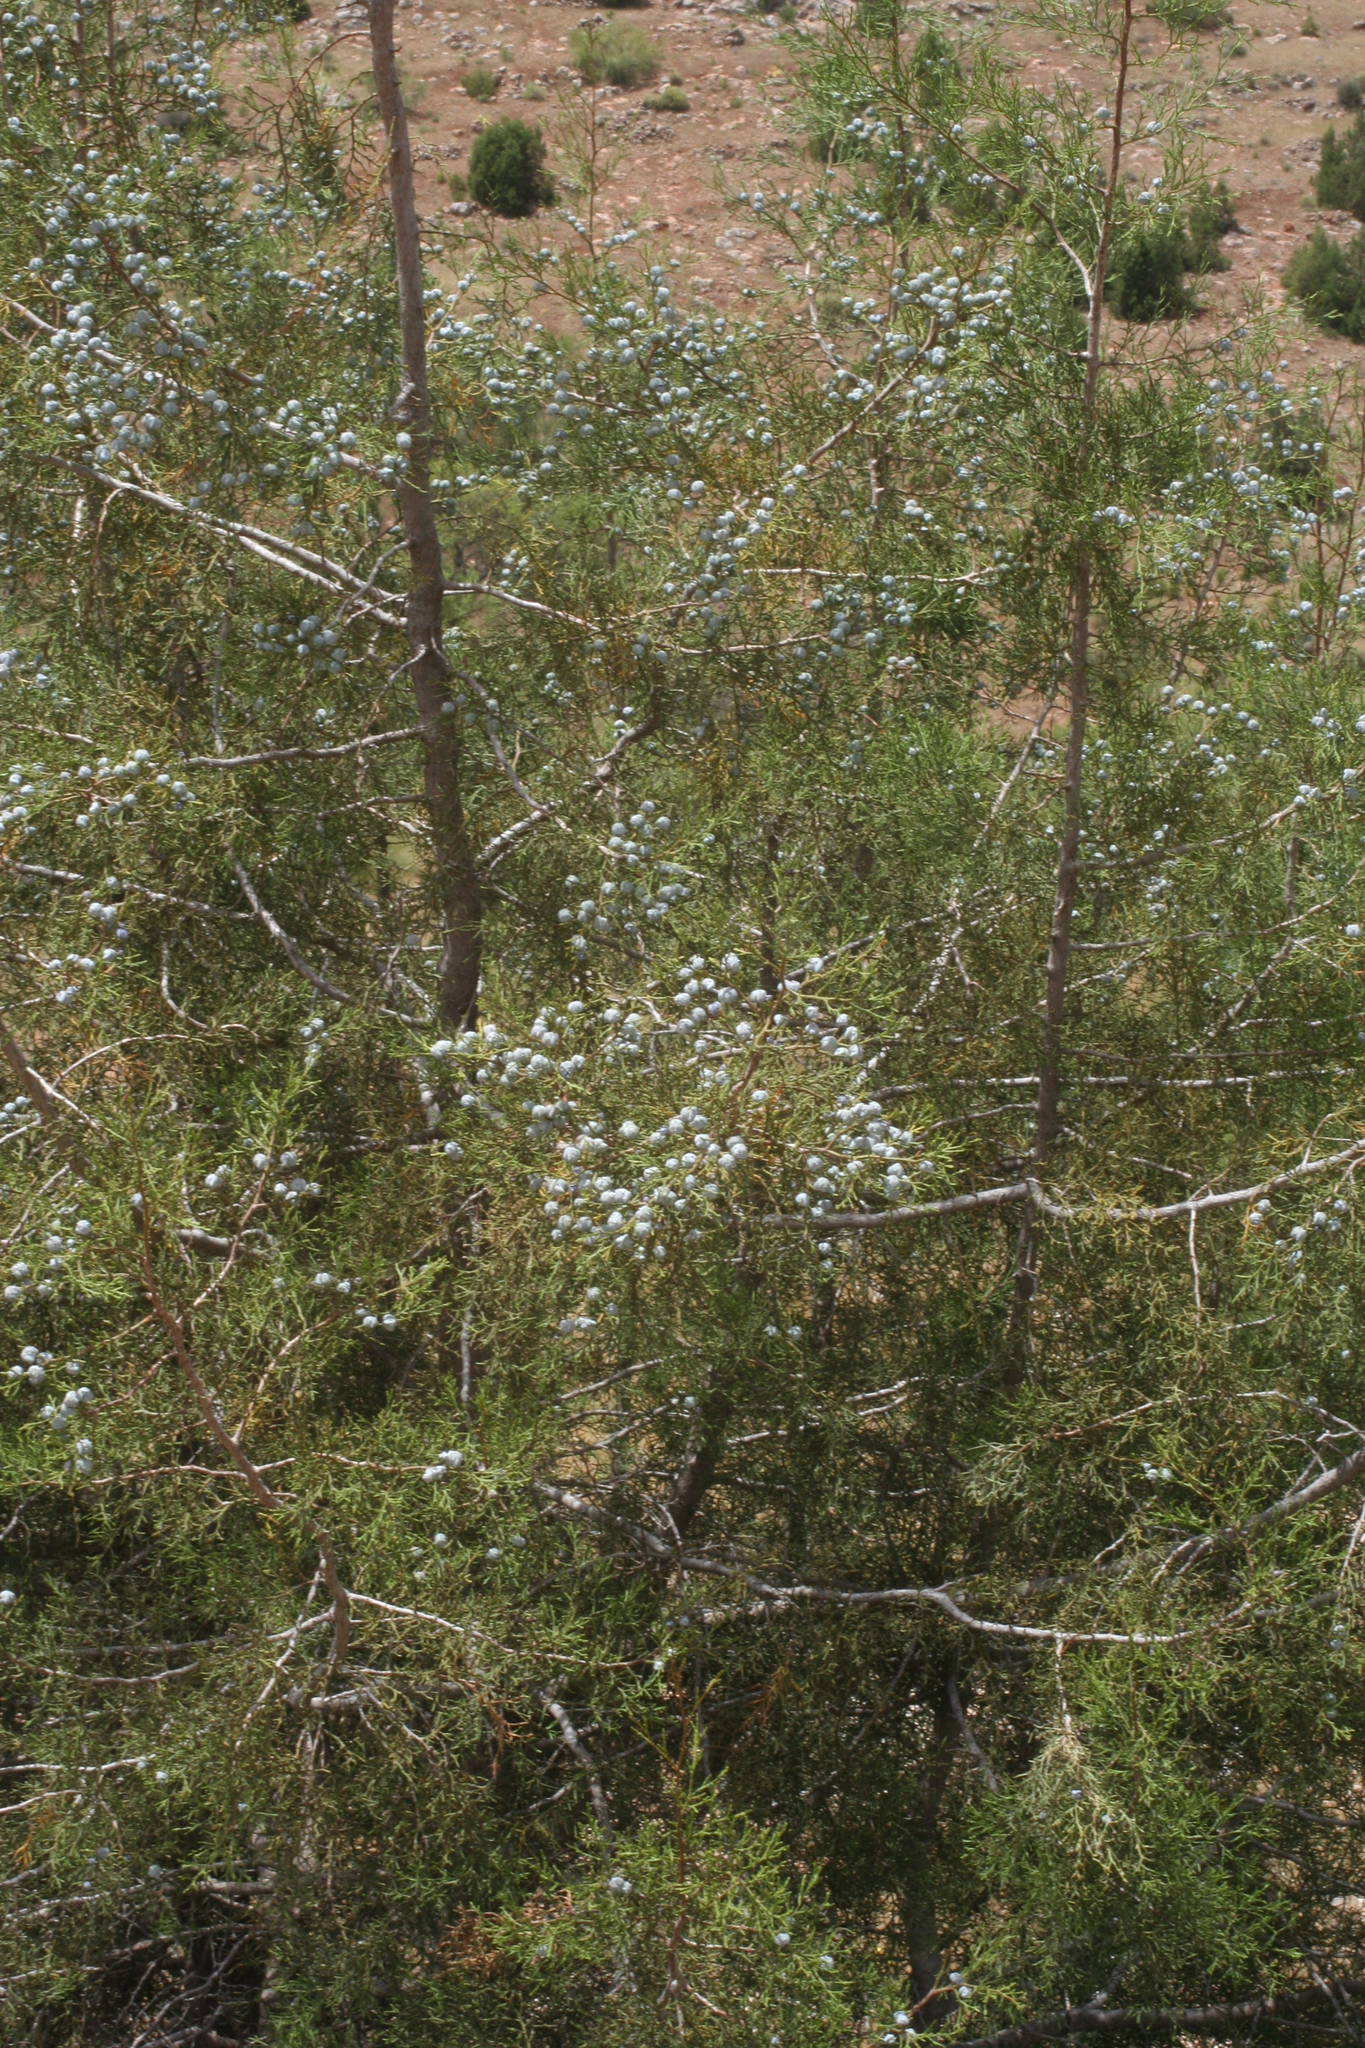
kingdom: Plantae
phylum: Tracheophyta
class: Pinopsida
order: Pinales
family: Cupressaceae
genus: Tetraclinis
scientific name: Tetraclinis articulata
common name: Sandarac
